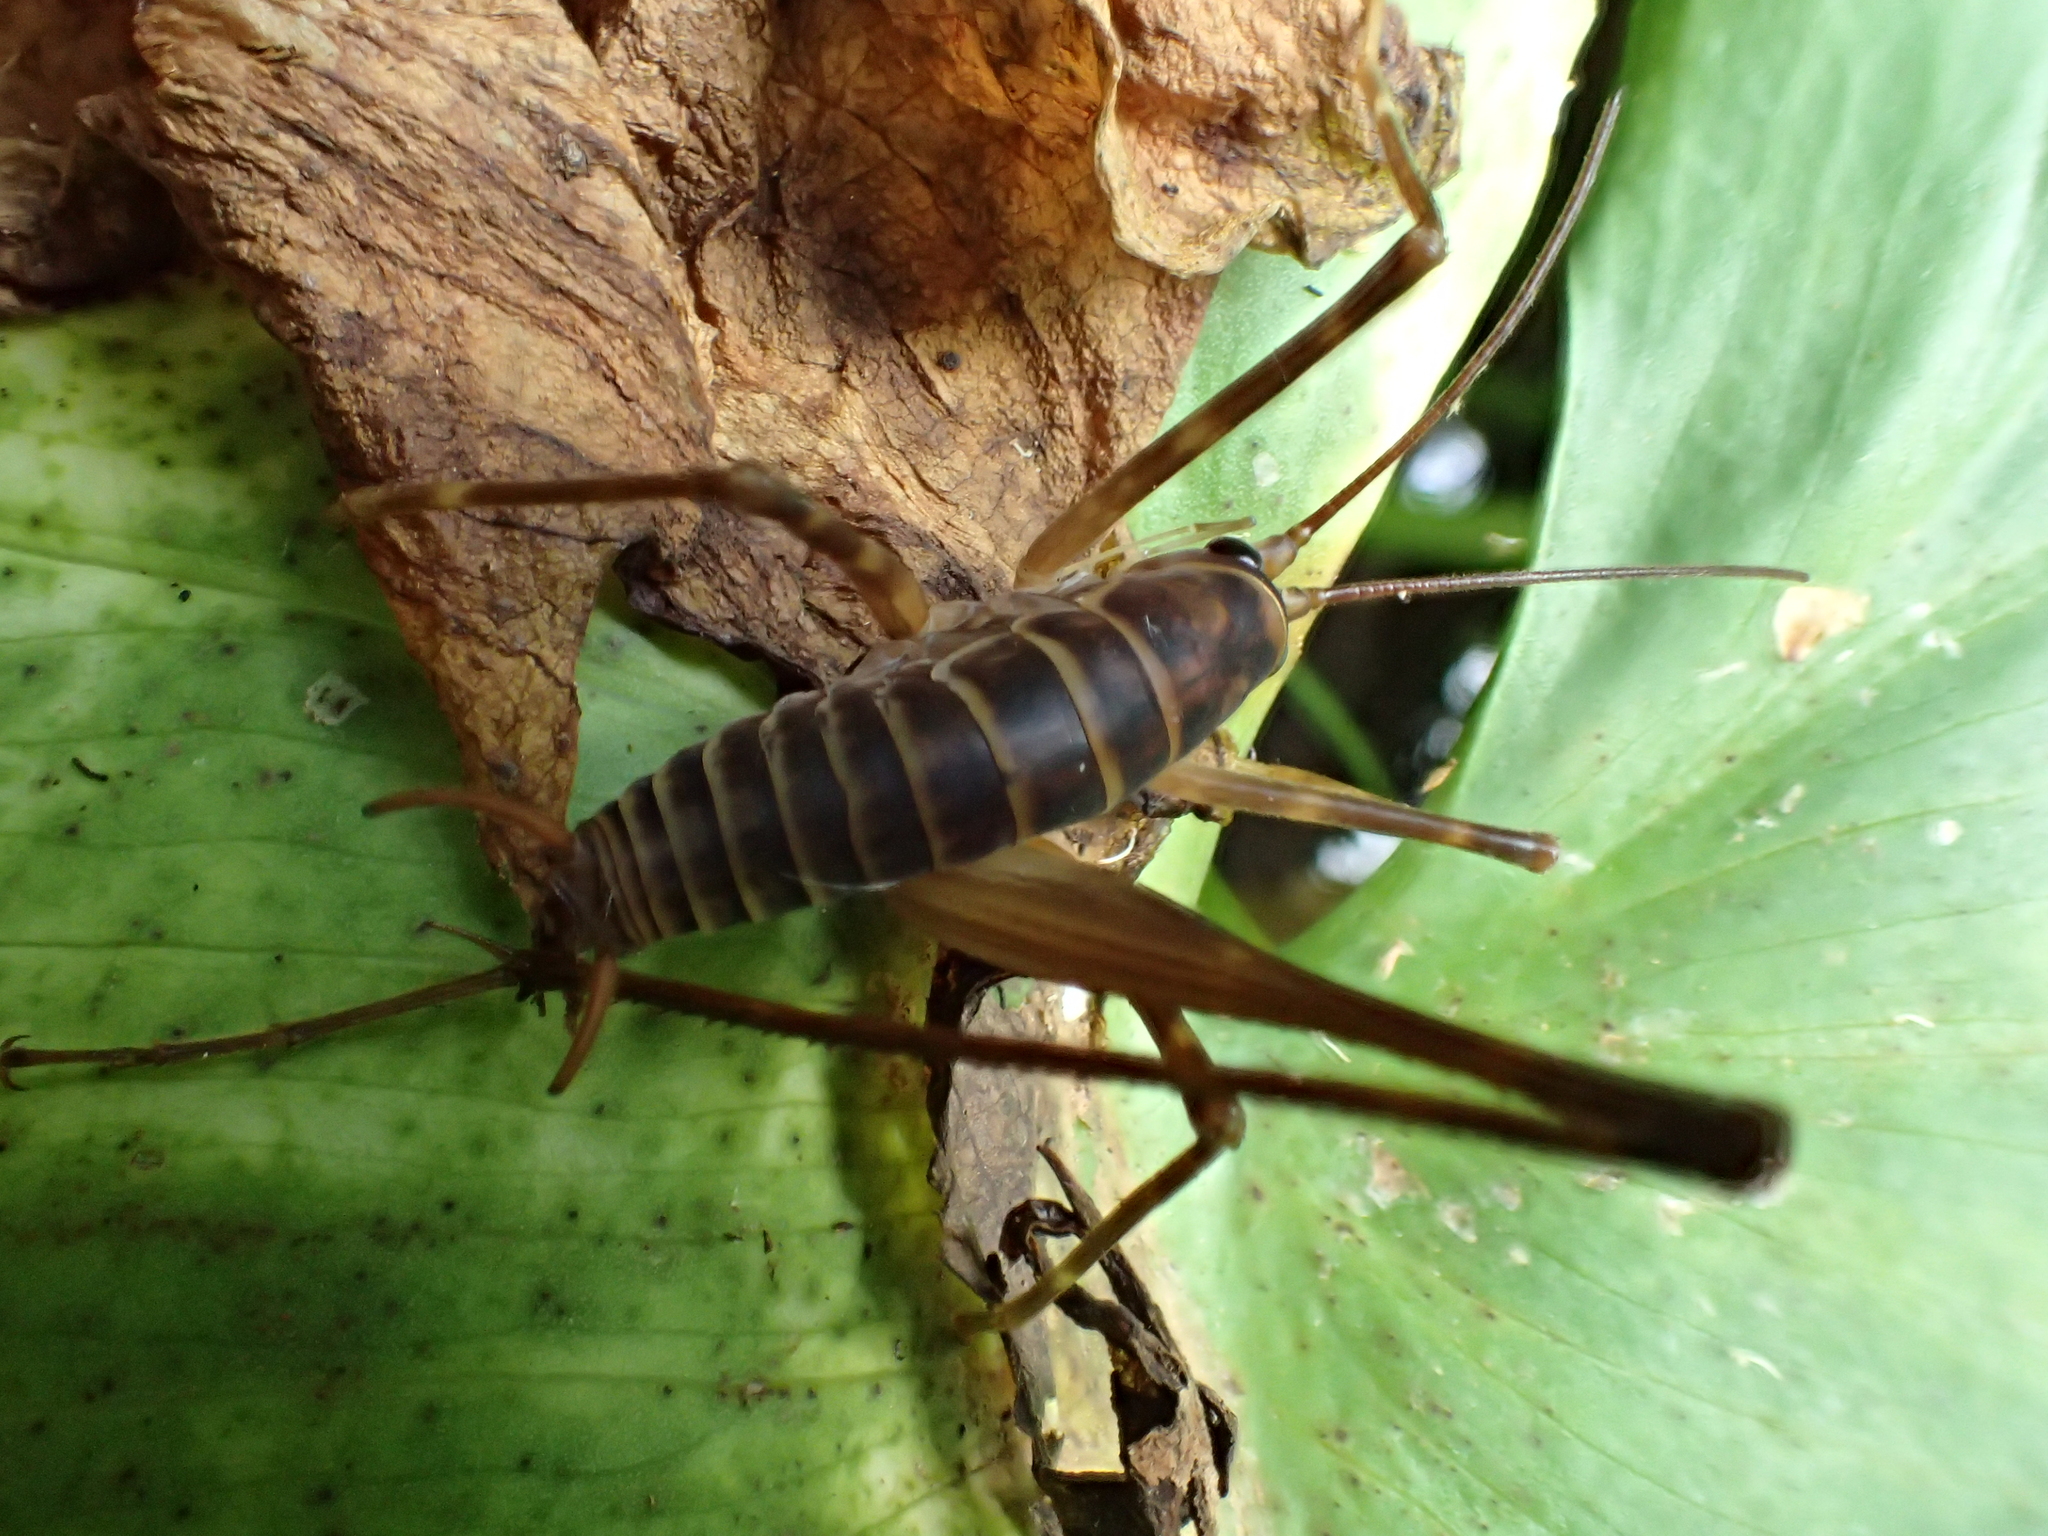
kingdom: Animalia
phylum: Arthropoda
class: Insecta
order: Orthoptera
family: Rhaphidophoridae
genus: Pachyrhamma
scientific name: Pachyrhamma acanthocera
